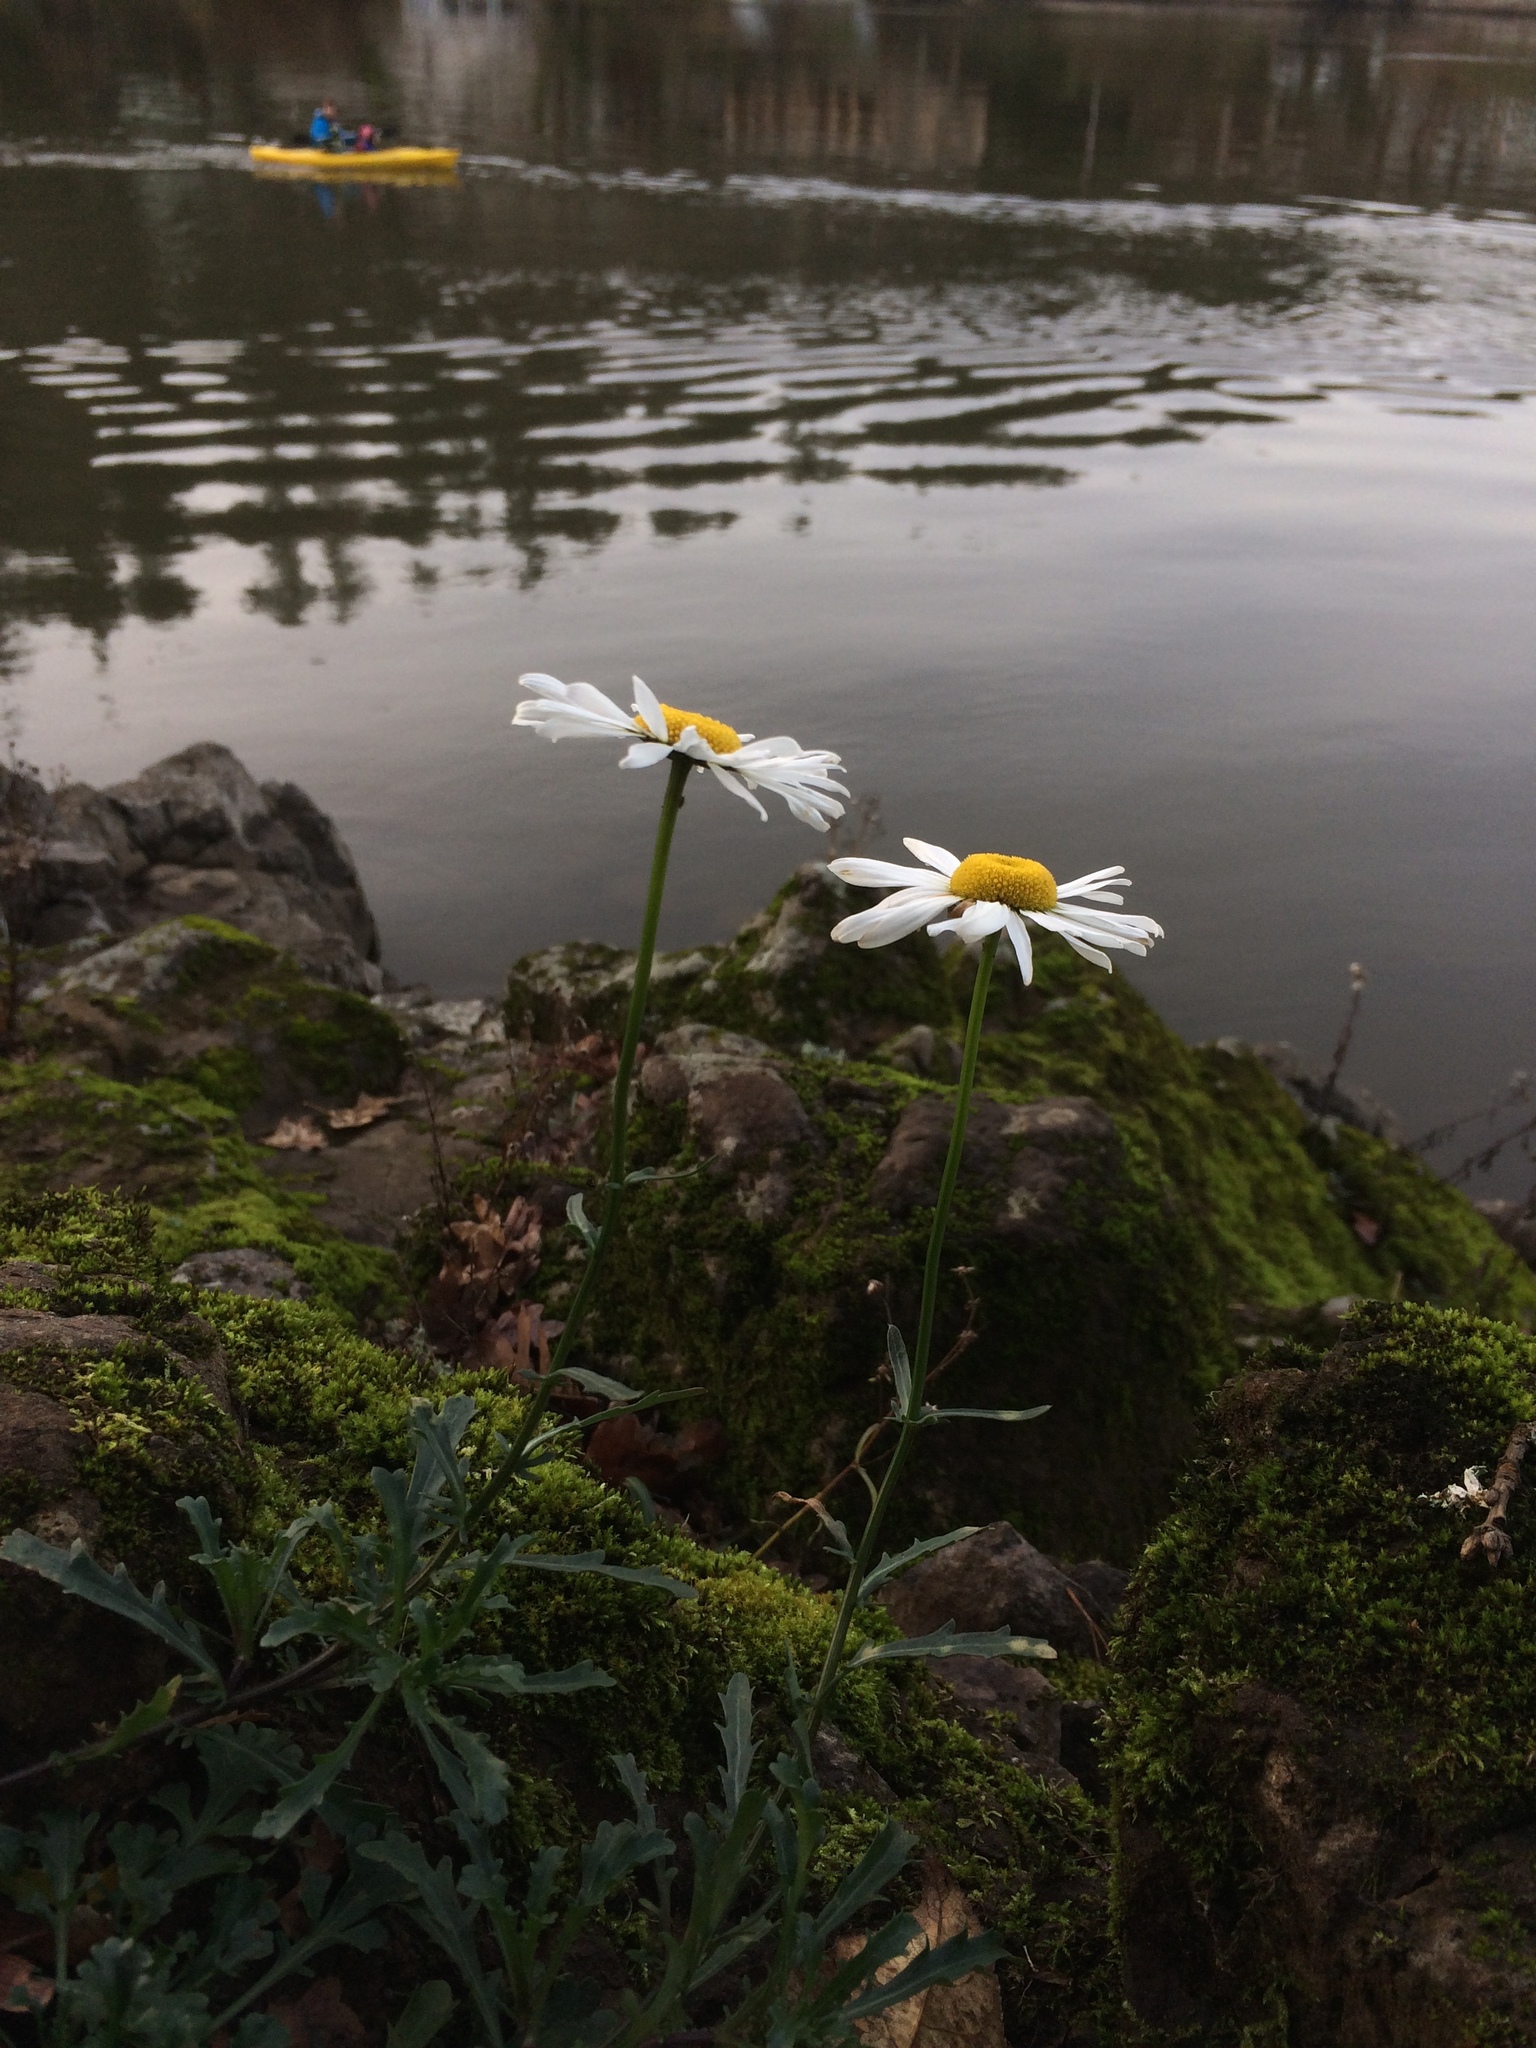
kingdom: Plantae
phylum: Tracheophyta
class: Magnoliopsida
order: Asterales
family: Asteraceae
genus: Leucanthemum
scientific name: Leucanthemum vulgare
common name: Oxeye daisy
